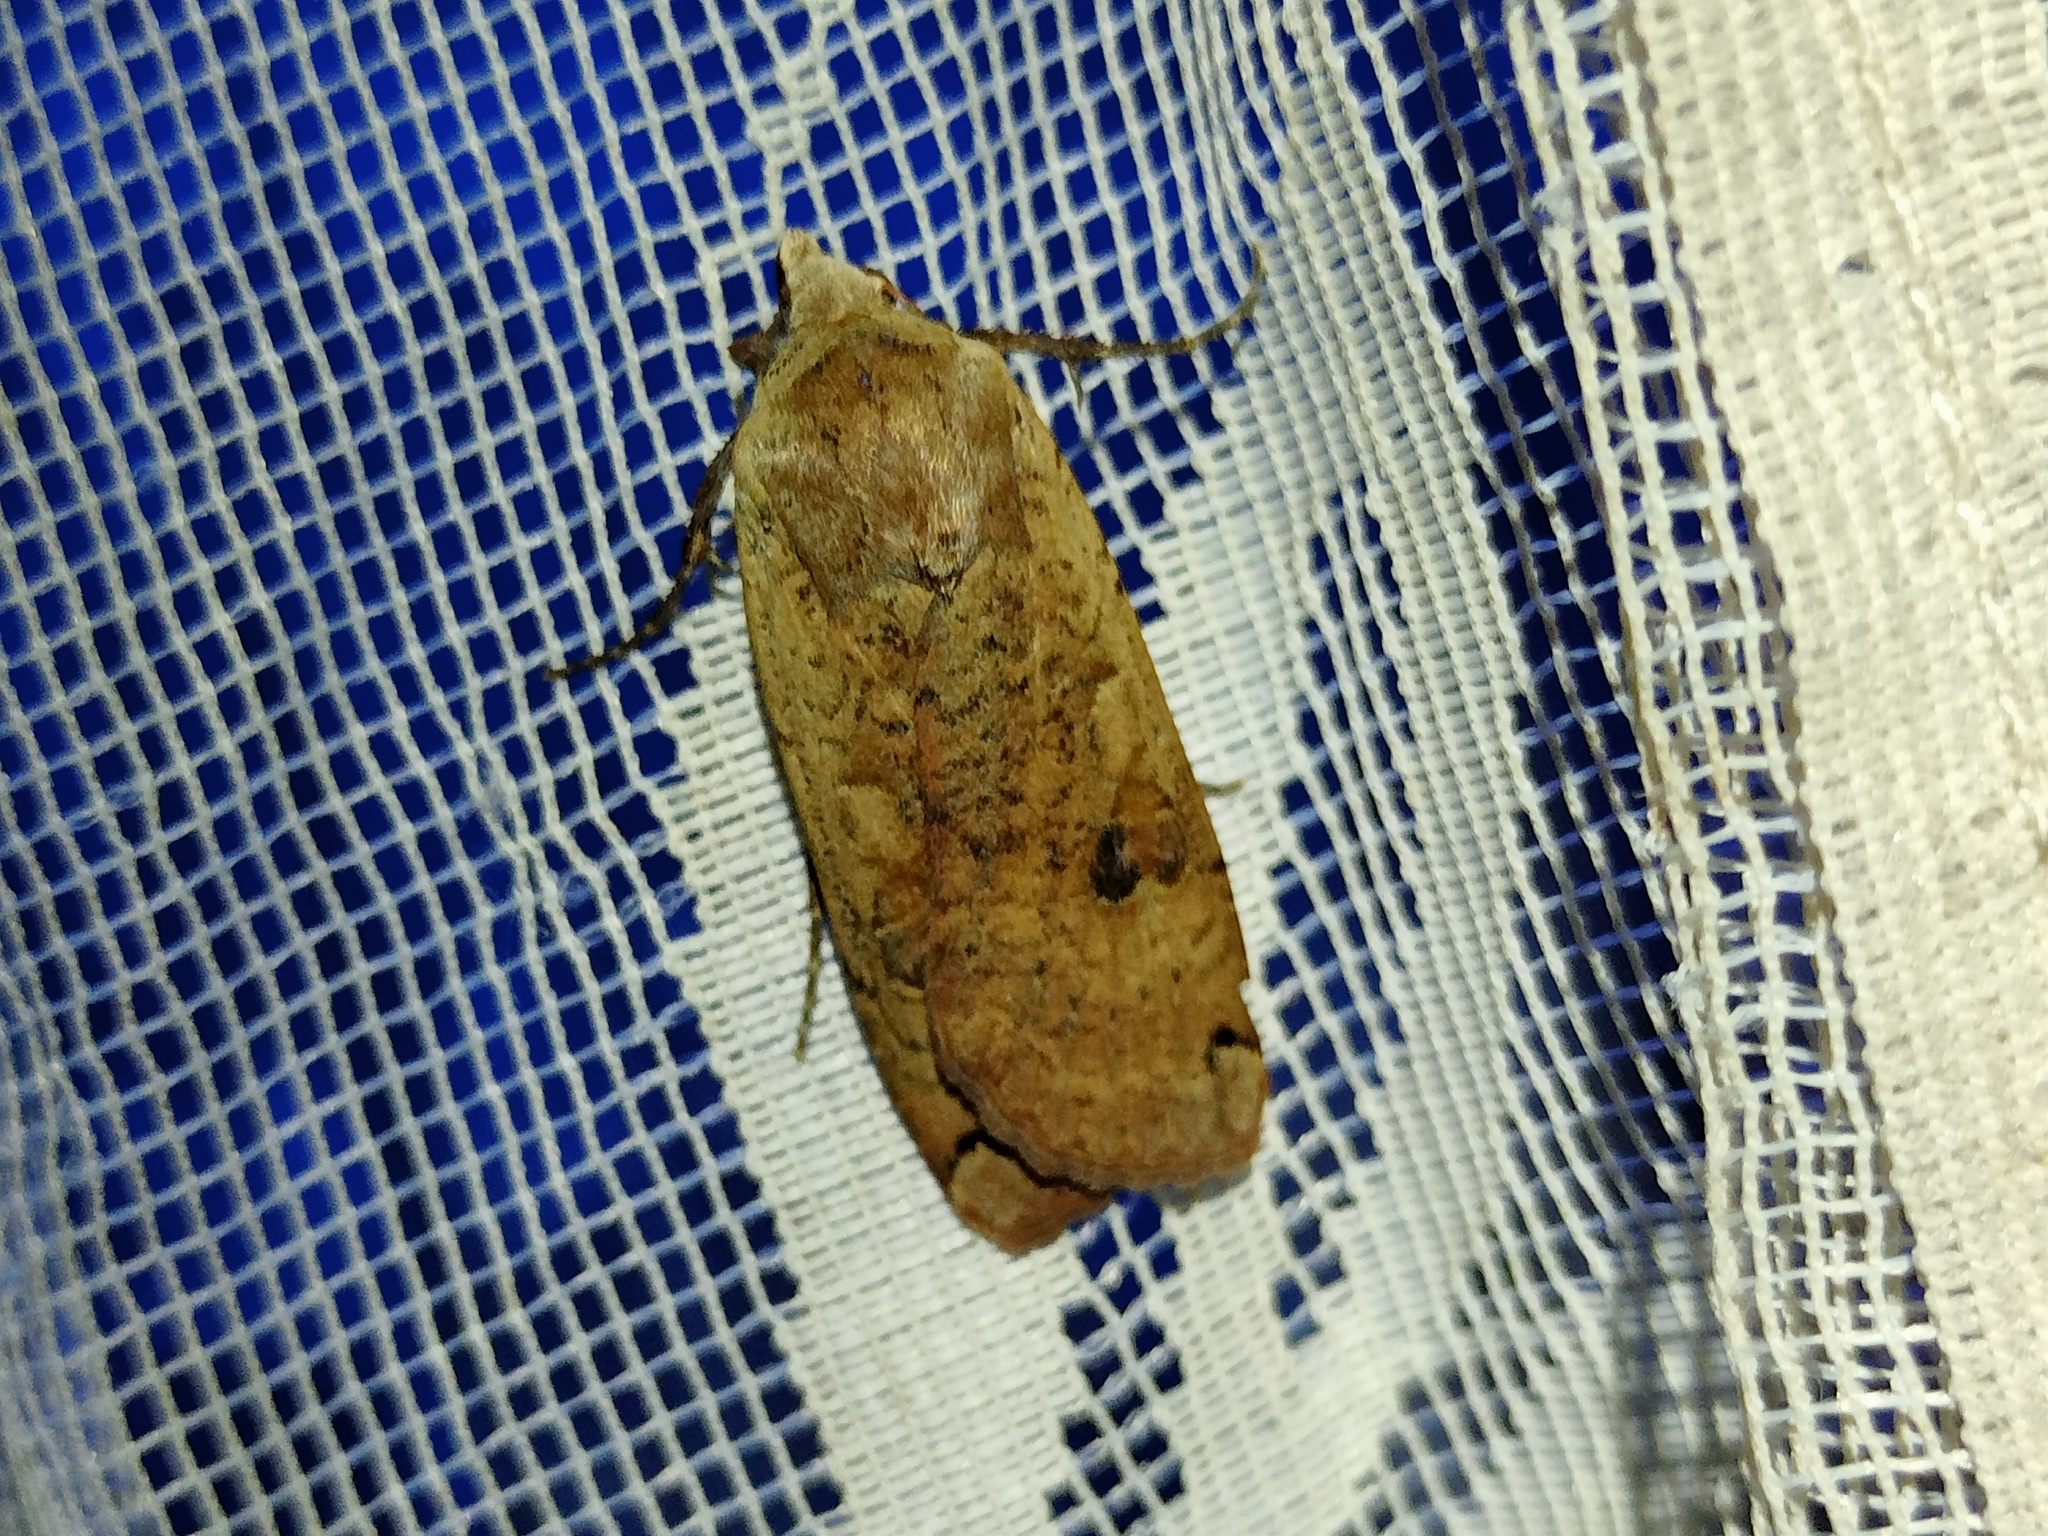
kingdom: Animalia
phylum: Arthropoda
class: Insecta
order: Lepidoptera
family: Noctuidae
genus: Noctua
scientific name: Noctua pronuba
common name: Large yellow underwing
